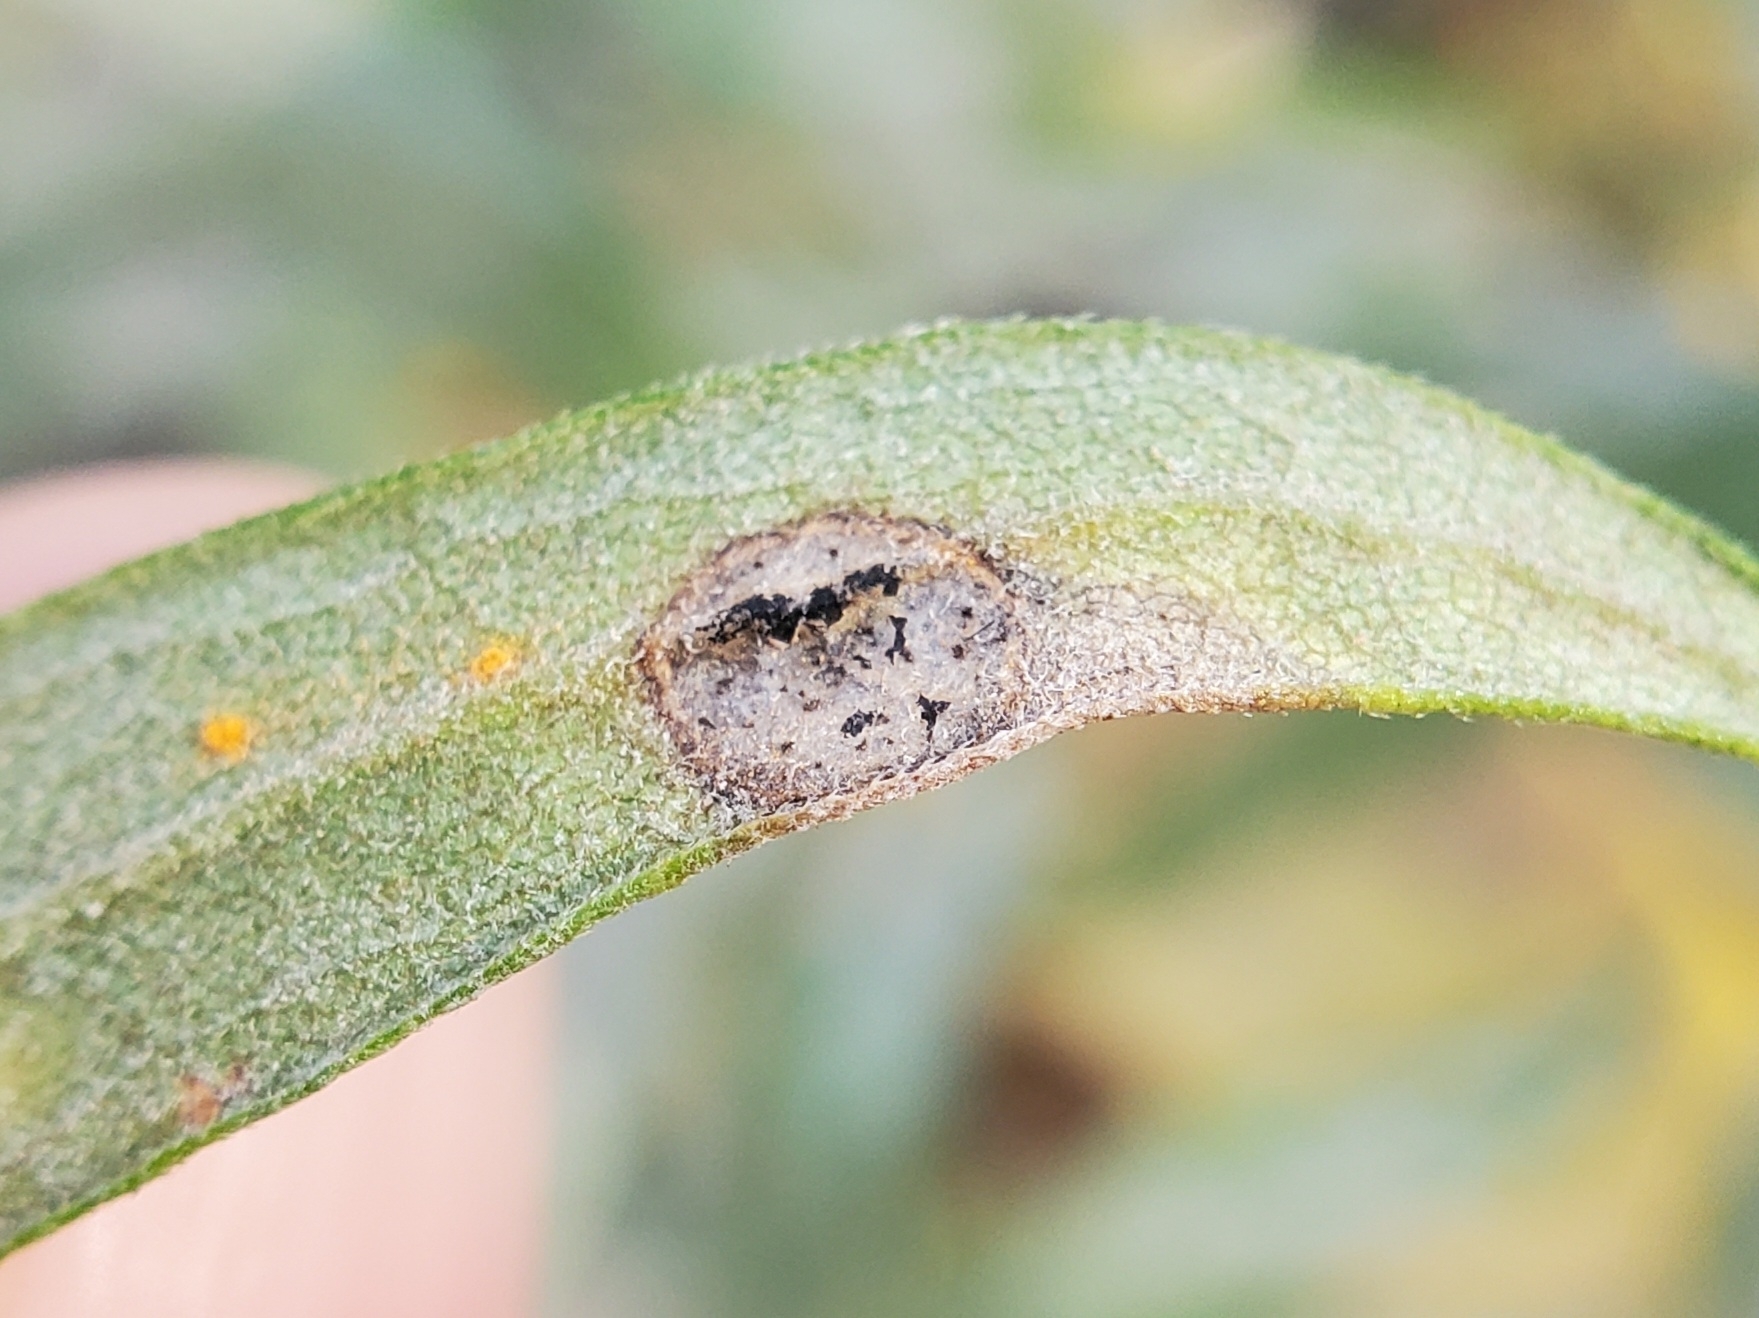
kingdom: Animalia
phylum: Arthropoda
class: Insecta
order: Diptera
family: Cecidomyiidae
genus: Asteromyia
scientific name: Asteromyia carbonifera
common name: Carbonifera goldenrod gall midge
